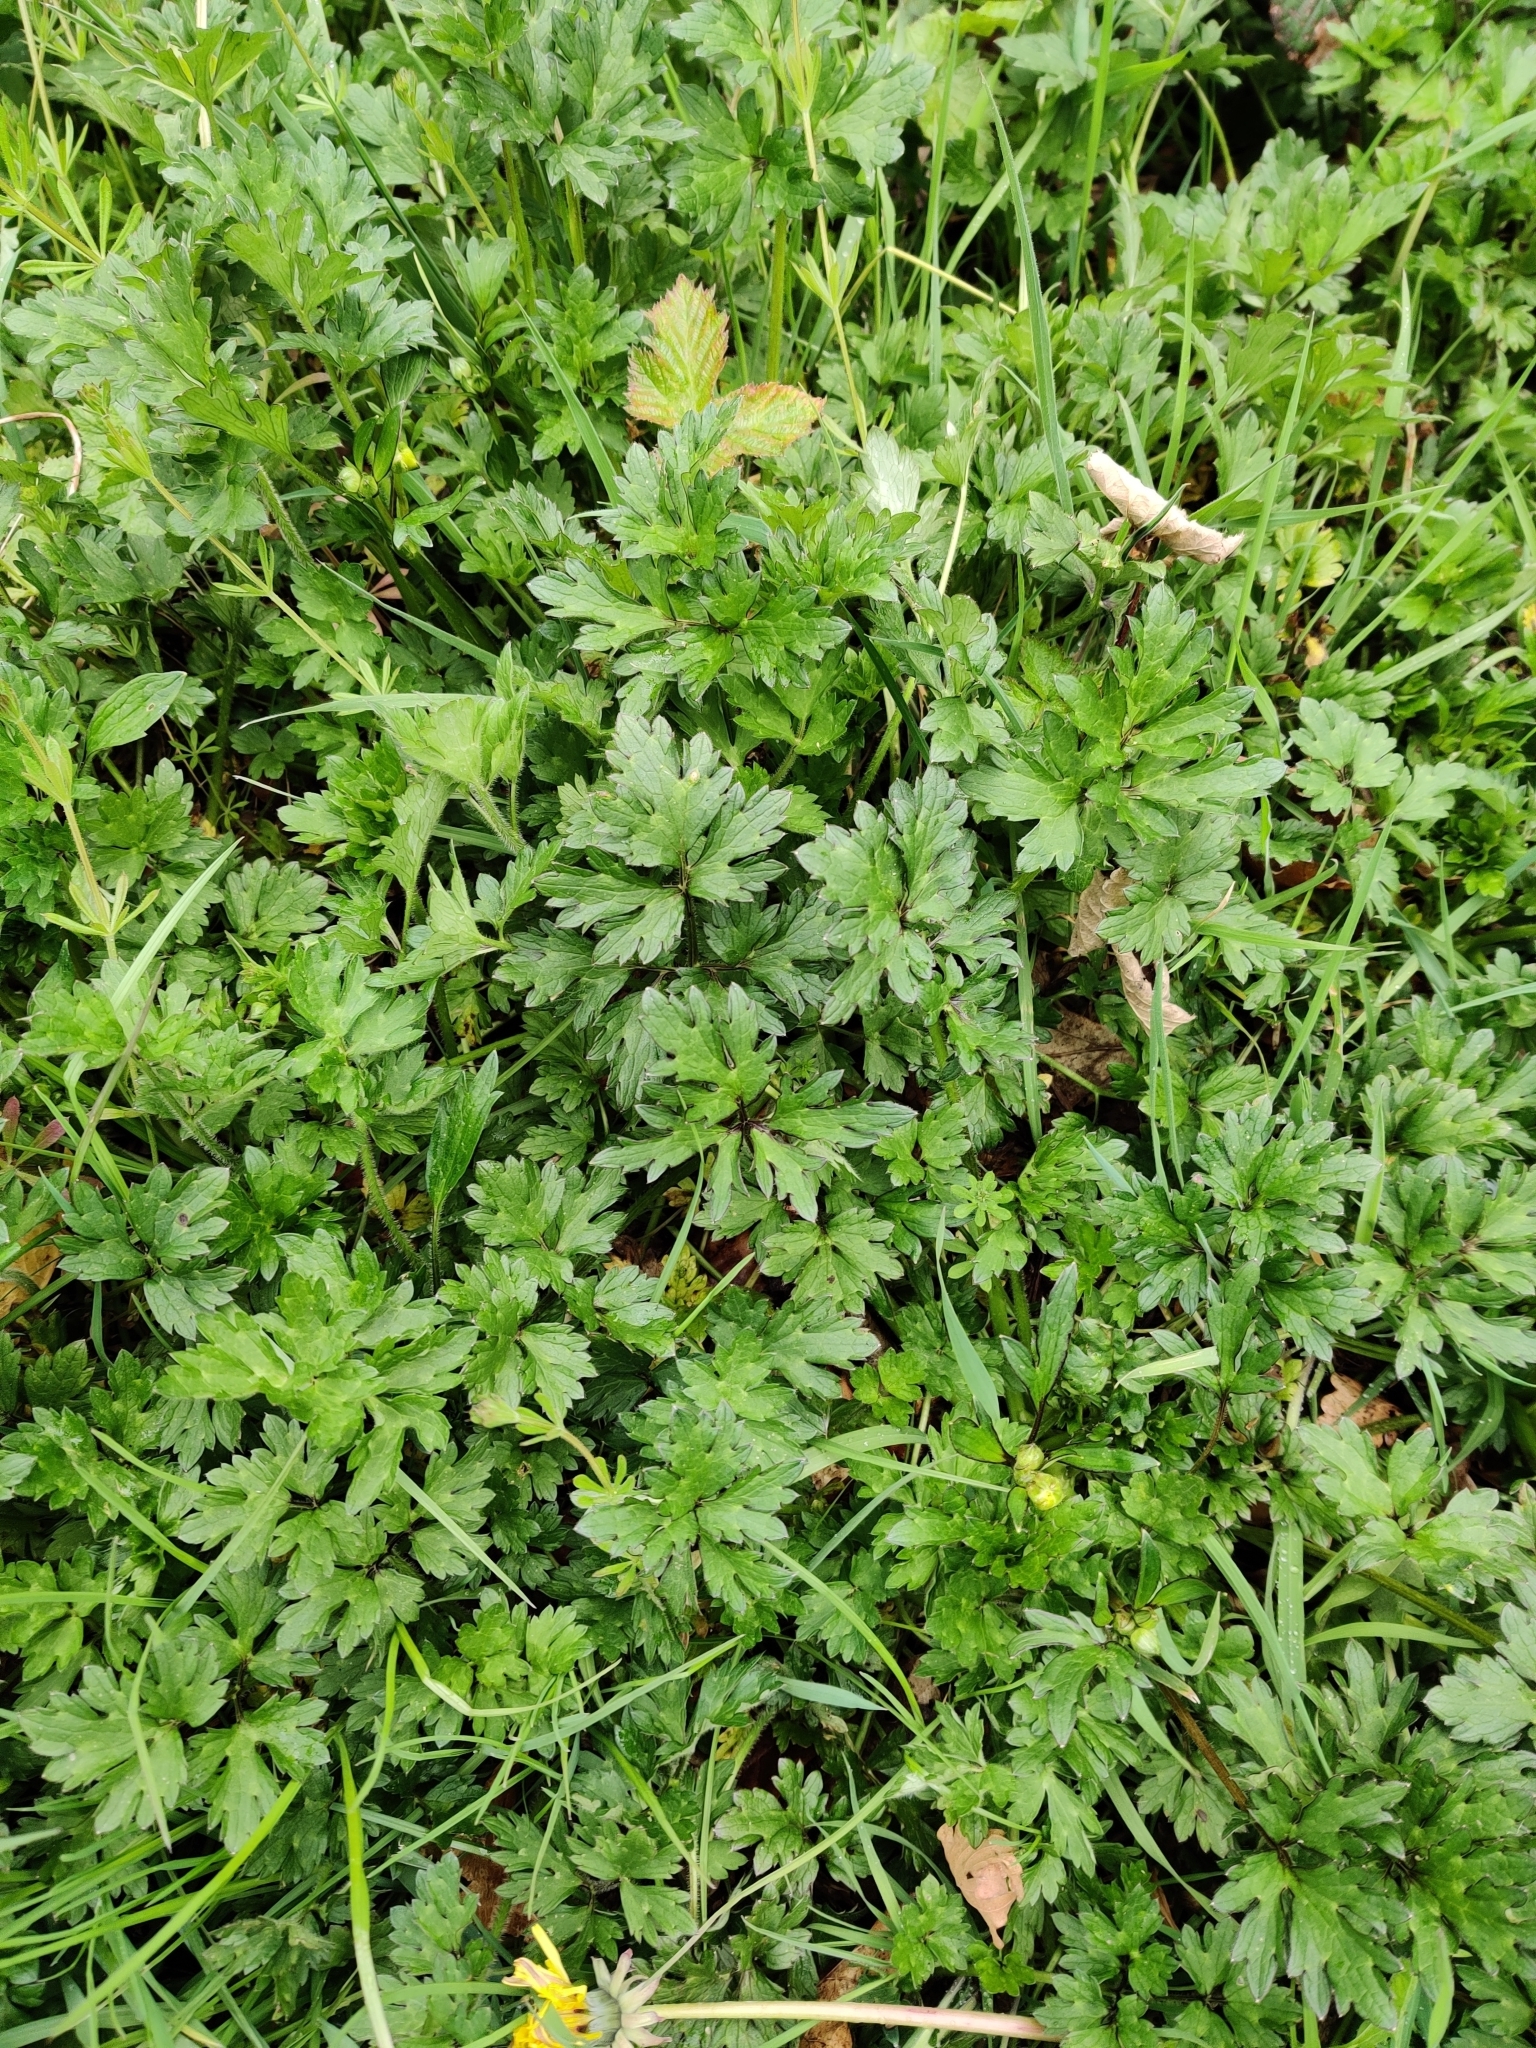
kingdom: Plantae
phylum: Tracheophyta
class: Magnoliopsida
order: Ranunculales
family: Ranunculaceae
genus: Ranunculus
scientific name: Ranunculus repens
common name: Creeping buttercup
